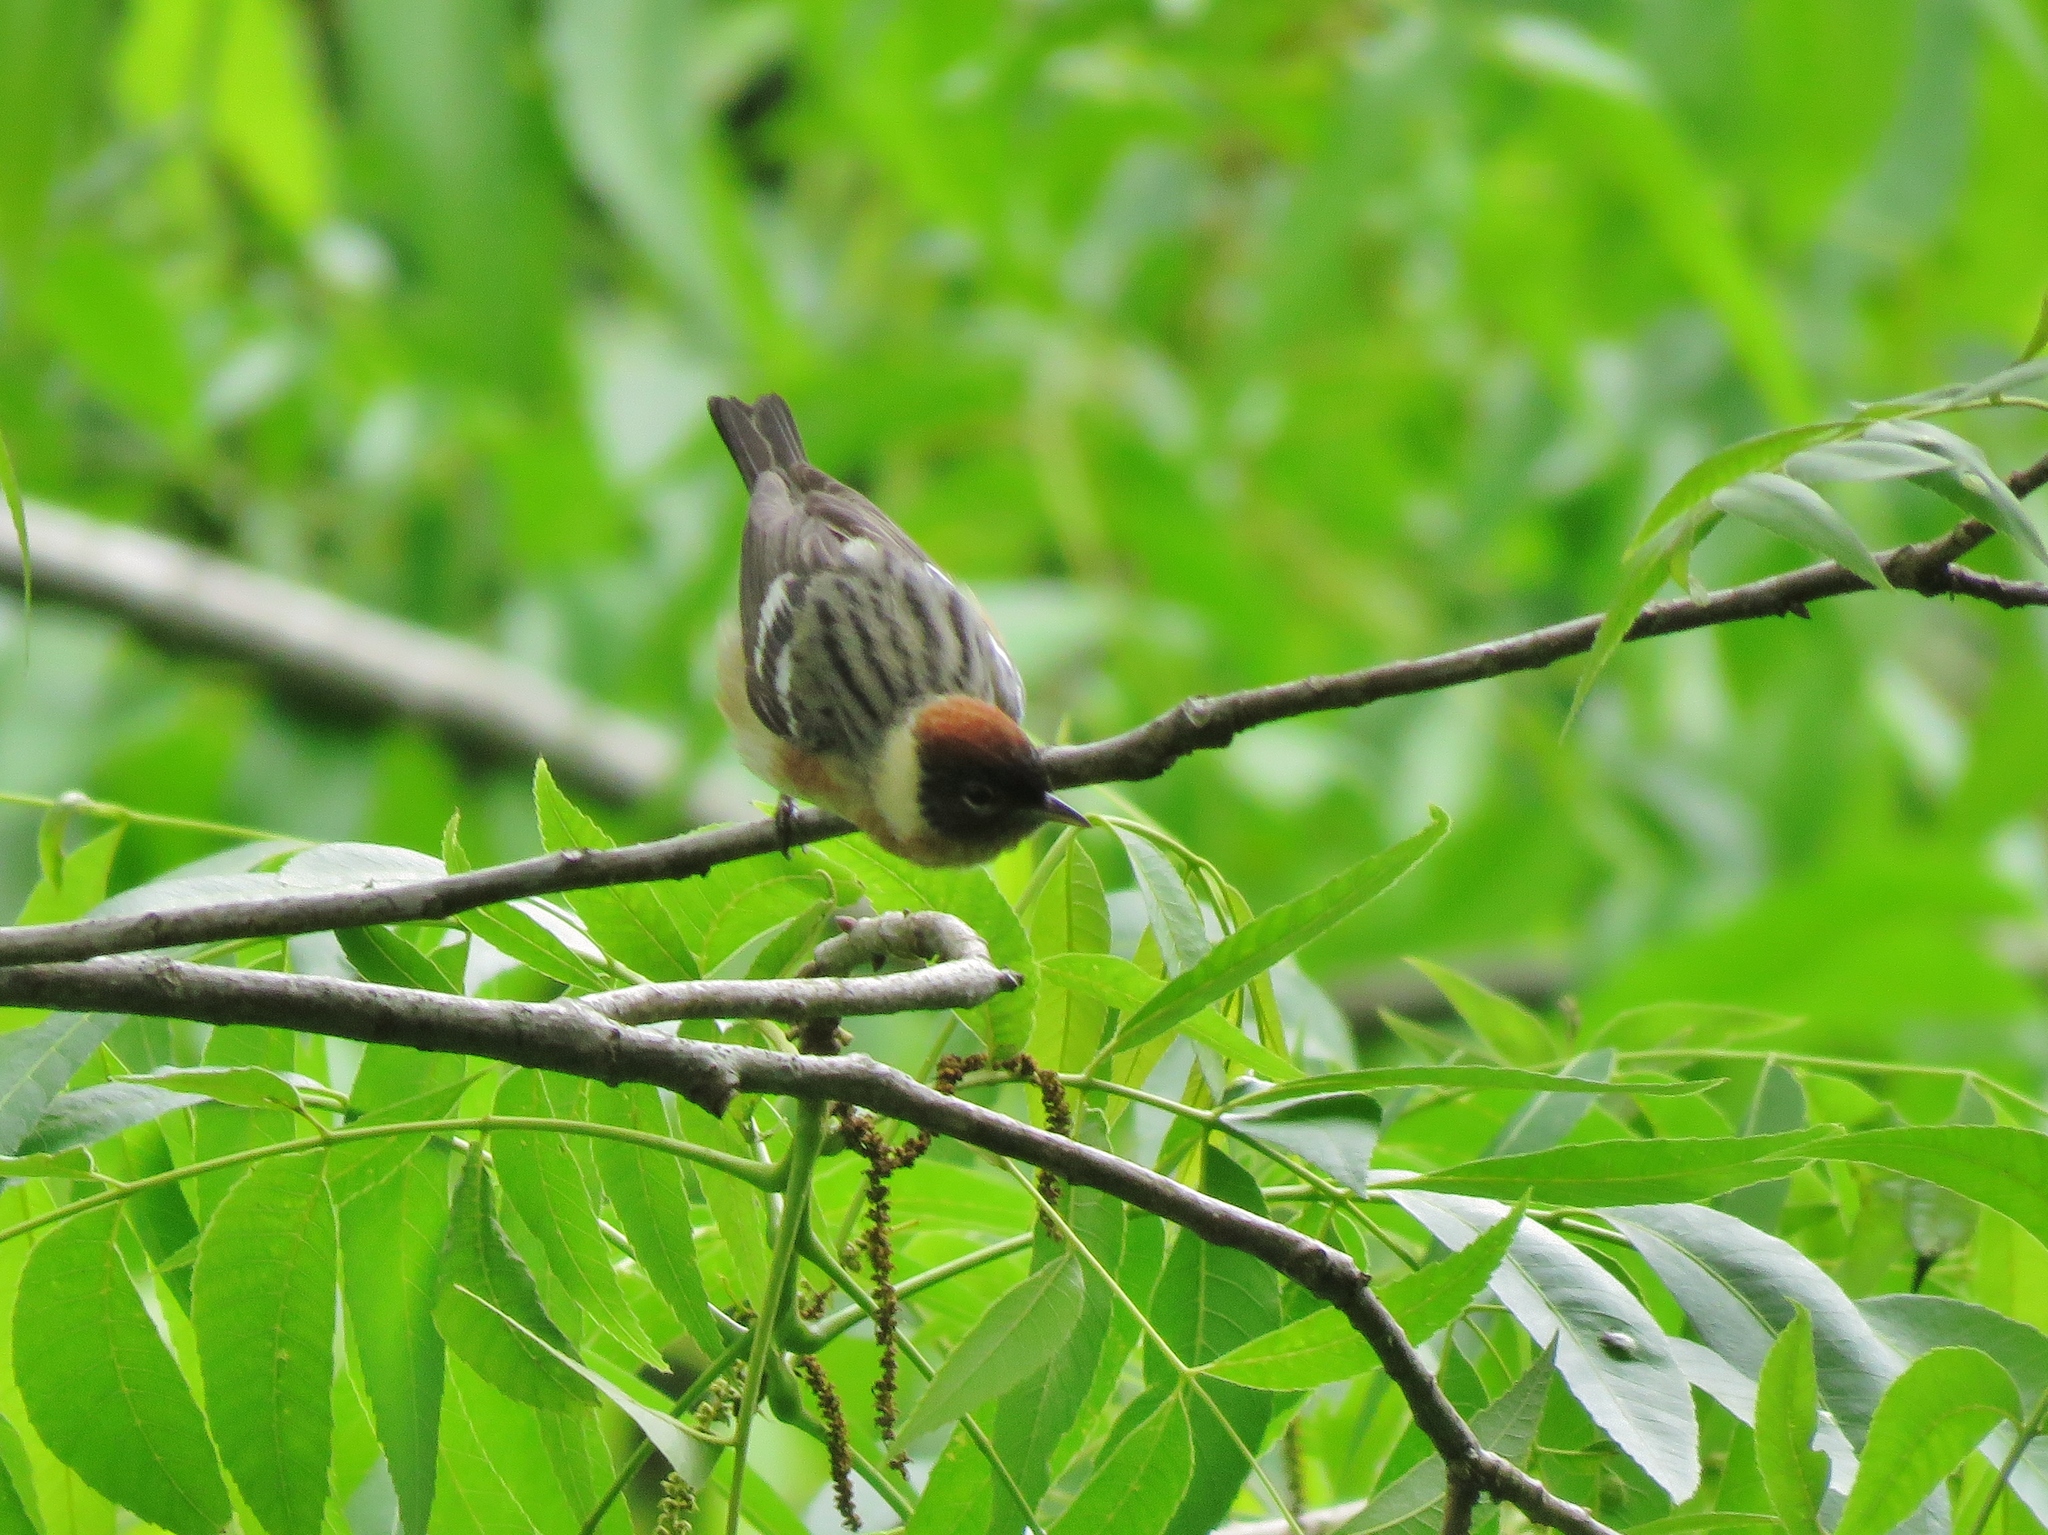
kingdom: Animalia
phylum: Chordata
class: Aves
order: Passeriformes
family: Parulidae
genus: Setophaga
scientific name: Setophaga castanea
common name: Bay-breasted warbler
